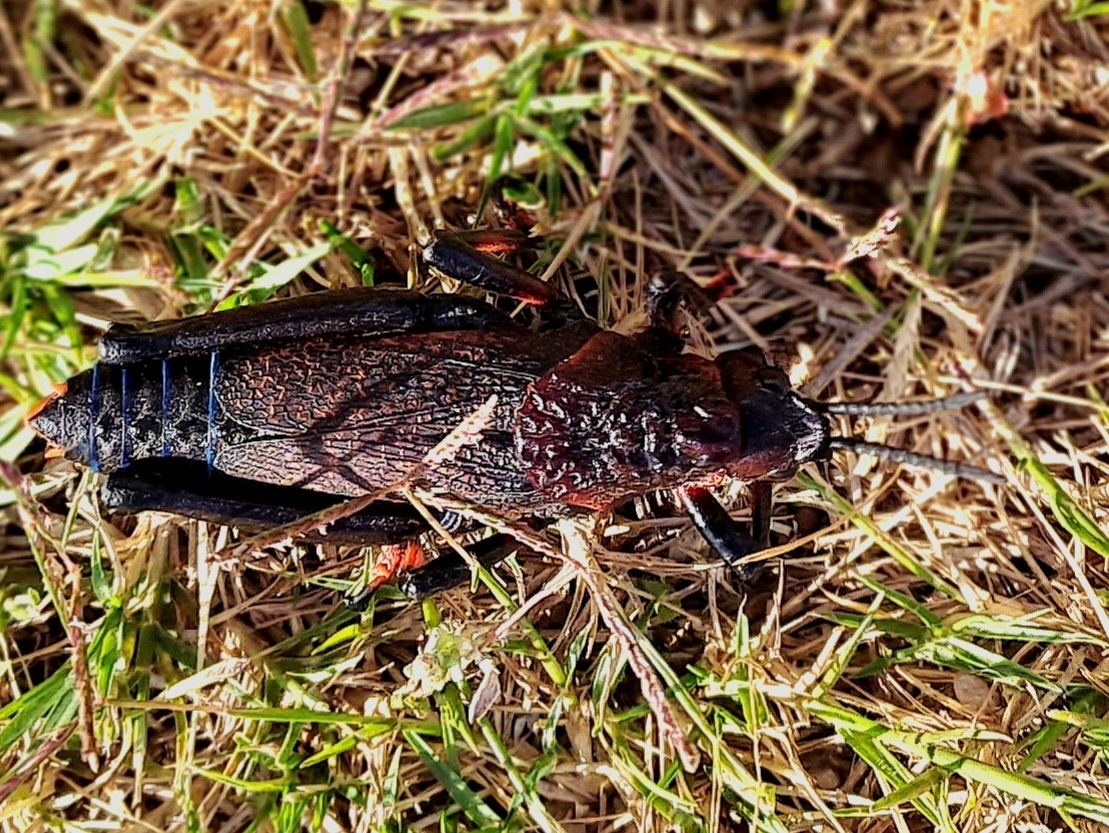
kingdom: Animalia
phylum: Arthropoda
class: Insecta
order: Orthoptera
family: Pyrgomorphidae
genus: Dictyophorus
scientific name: Dictyophorus spumans
